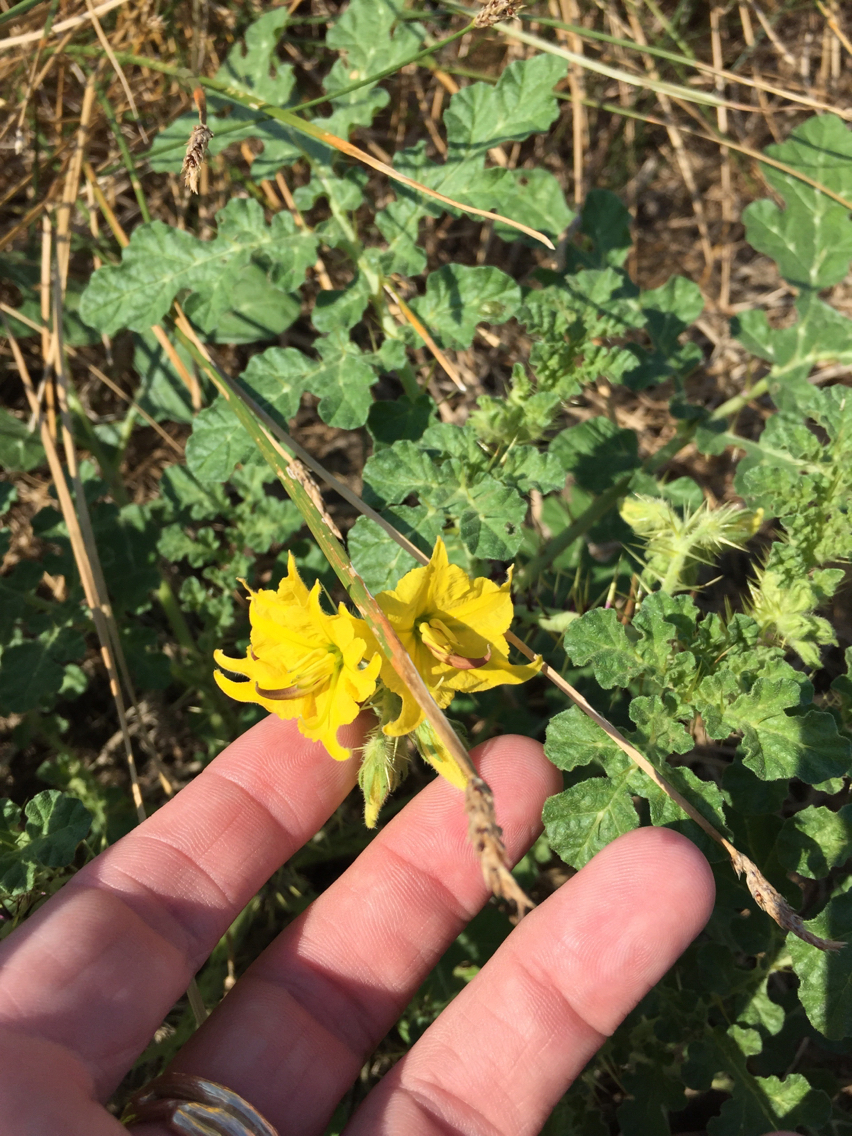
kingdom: Plantae
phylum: Tracheophyta
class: Magnoliopsida
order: Solanales
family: Solanaceae
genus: Solanum
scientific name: Solanum angustifolium
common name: Buffalobur nightshade
